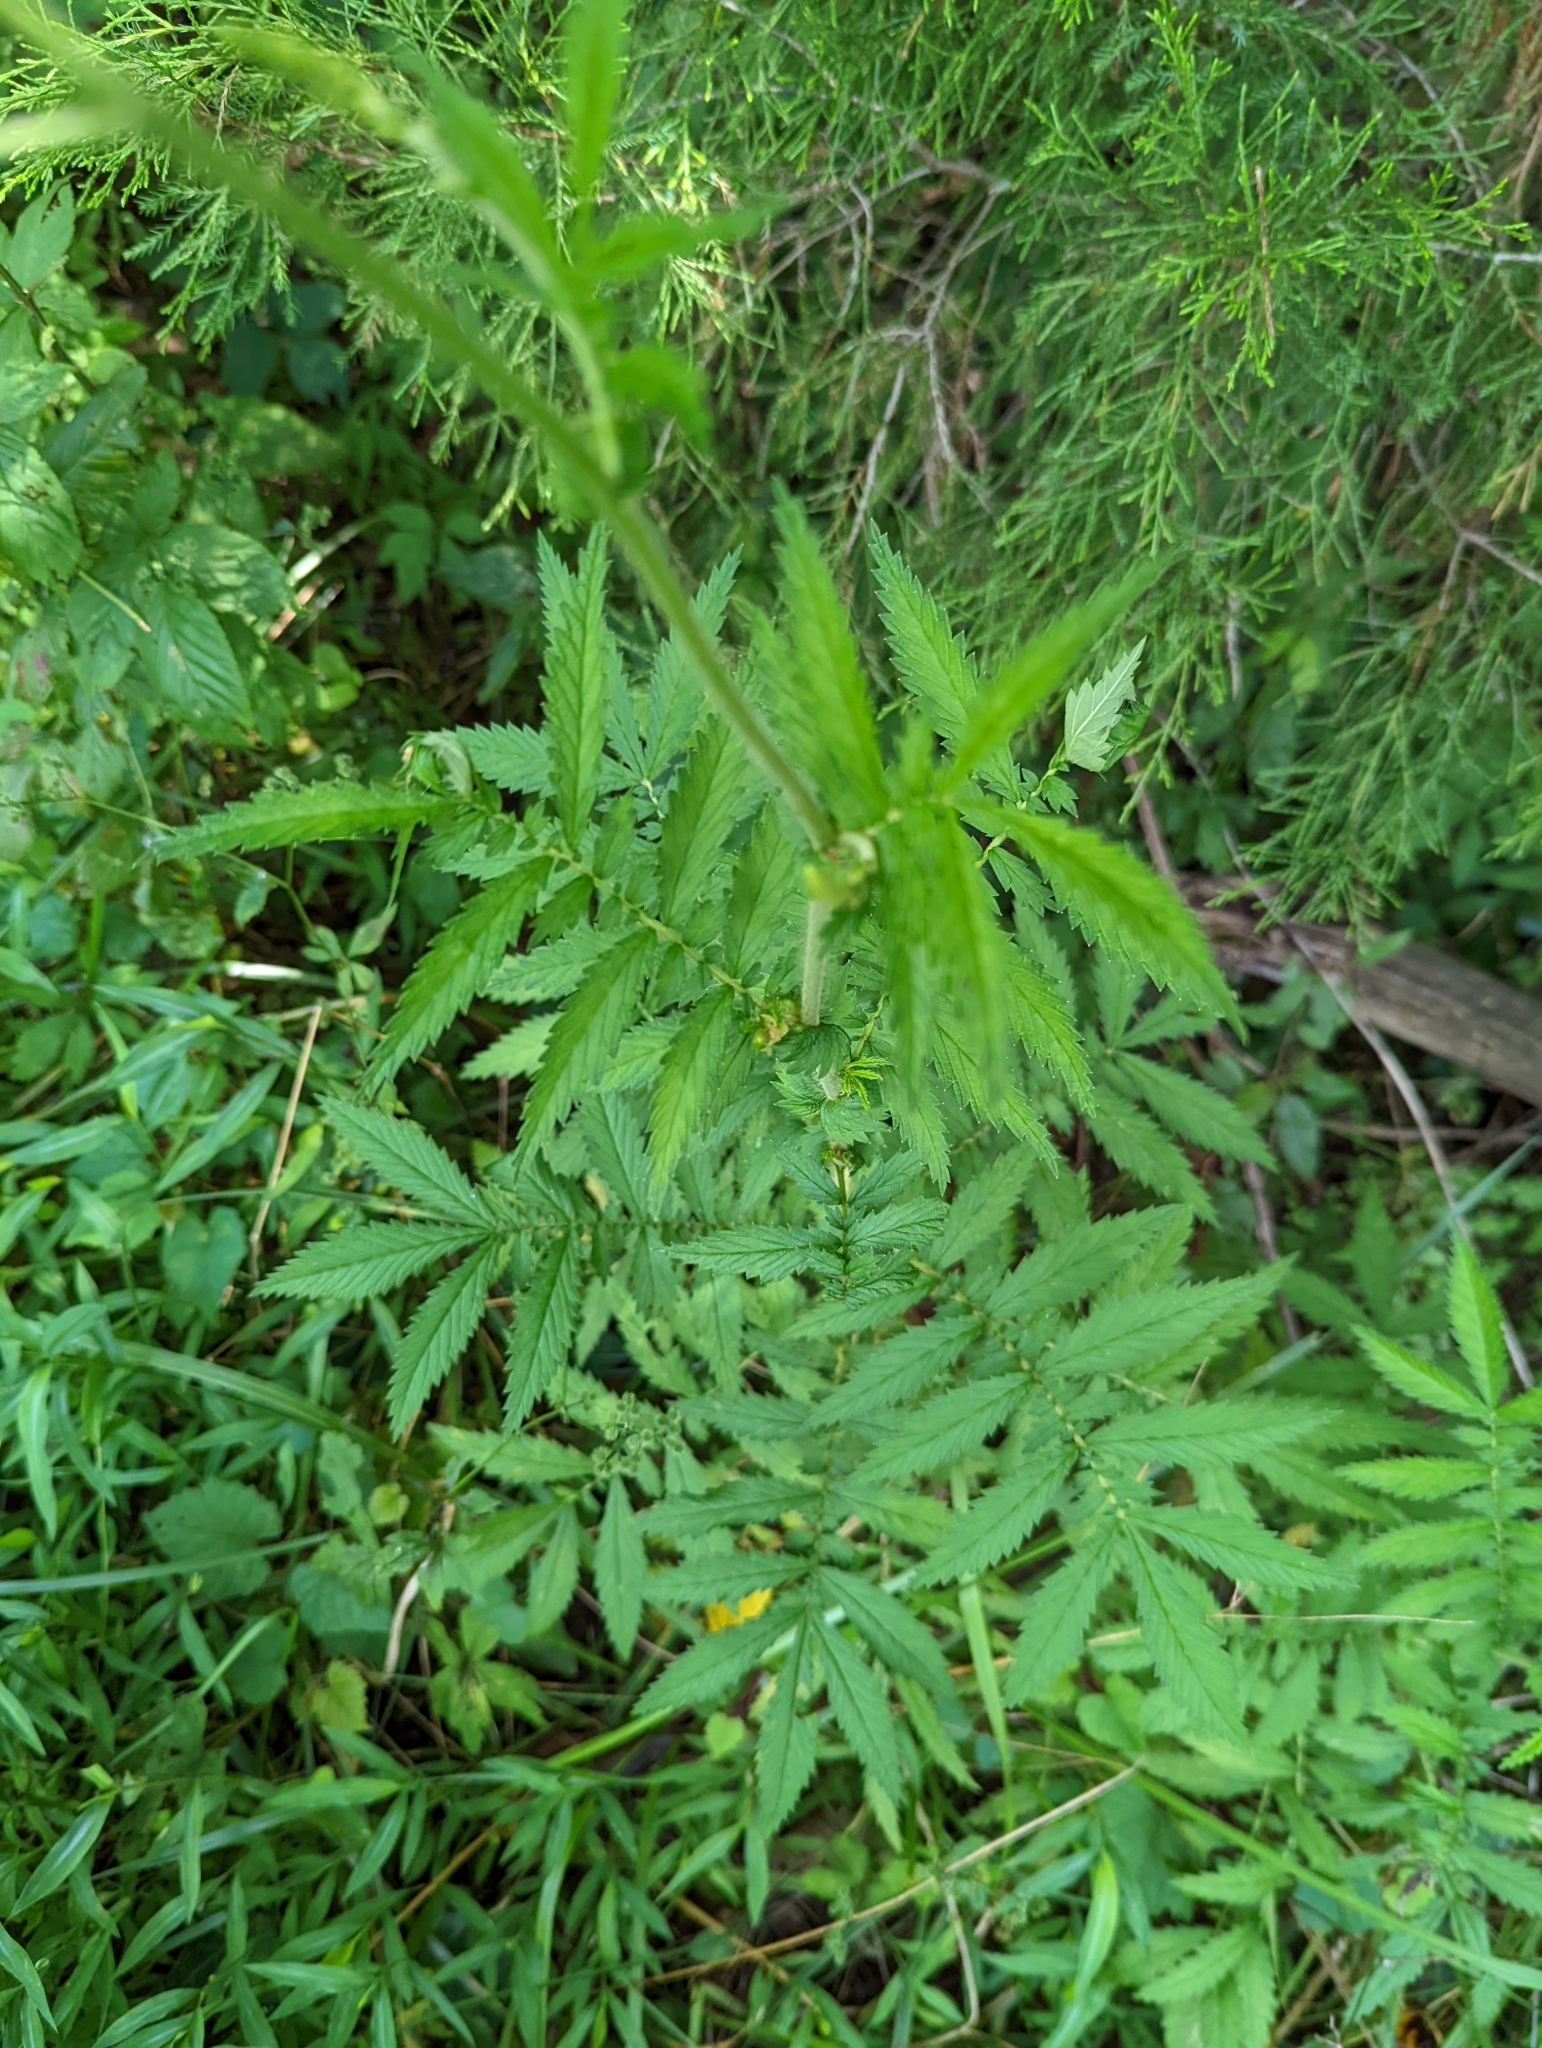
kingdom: Plantae
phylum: Tracheophyta
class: Magnoliopsida
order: Rosales
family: Rosaceae
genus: Agrimonia
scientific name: Agrimonia parviflora
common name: Harvest-lice
